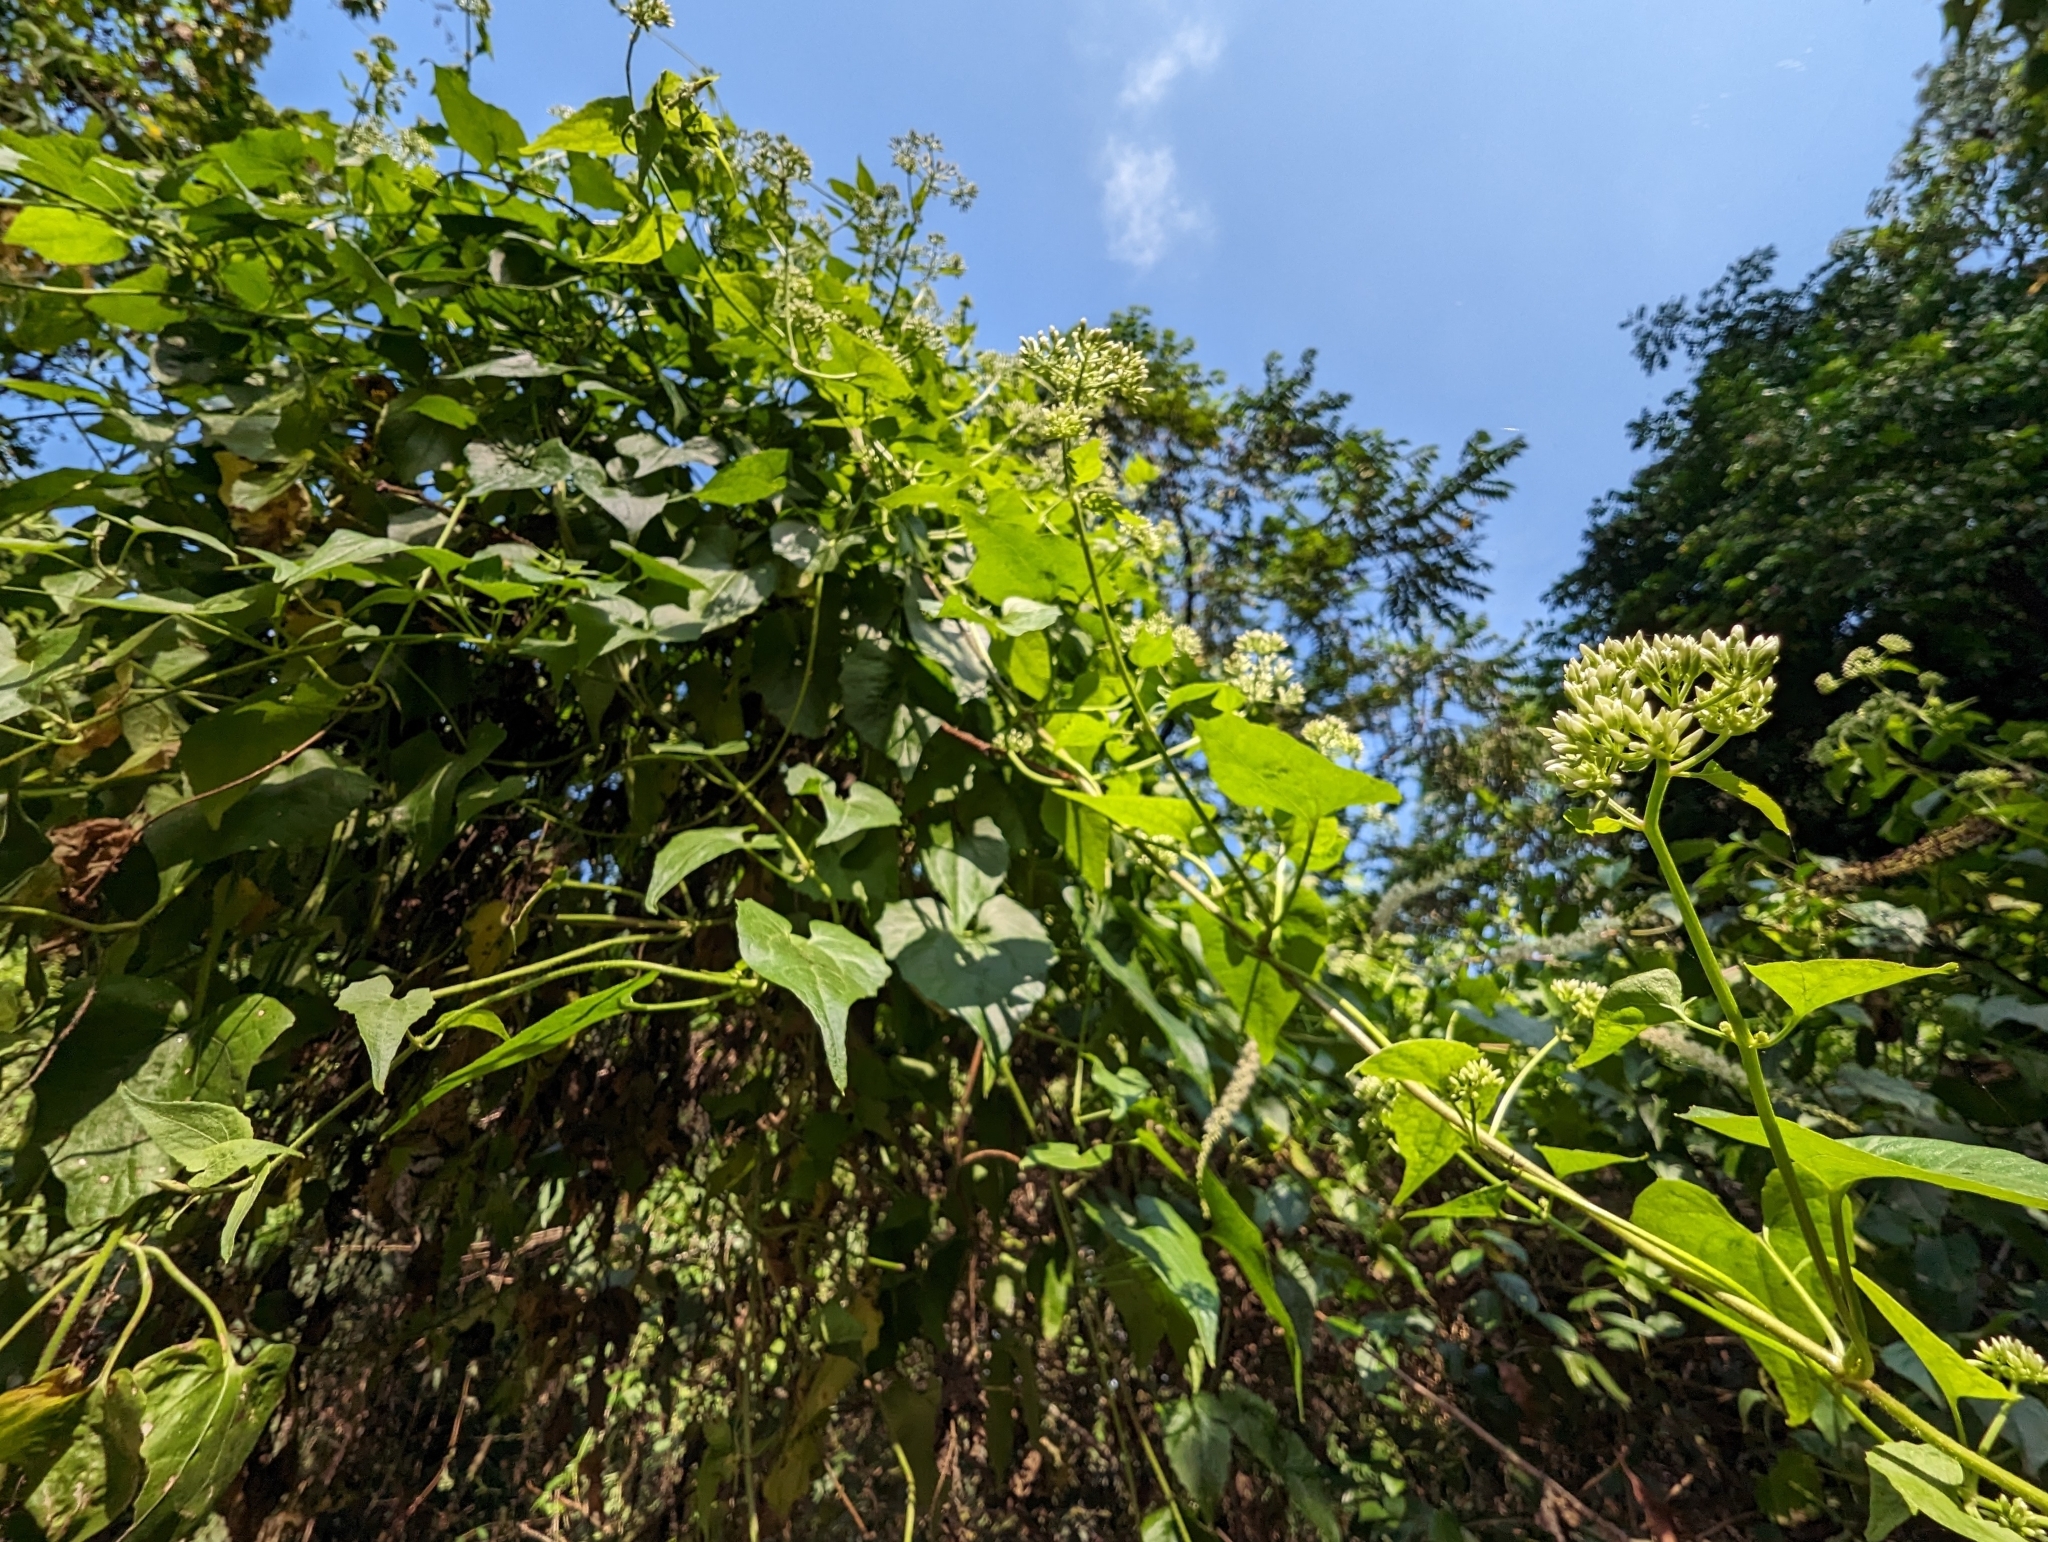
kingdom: Plantae
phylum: Tracheophyta
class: Magnoliopsida
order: Asterales
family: Asteraceae
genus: Mikania
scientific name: Mikania micrantha
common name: Mile-a-minute
